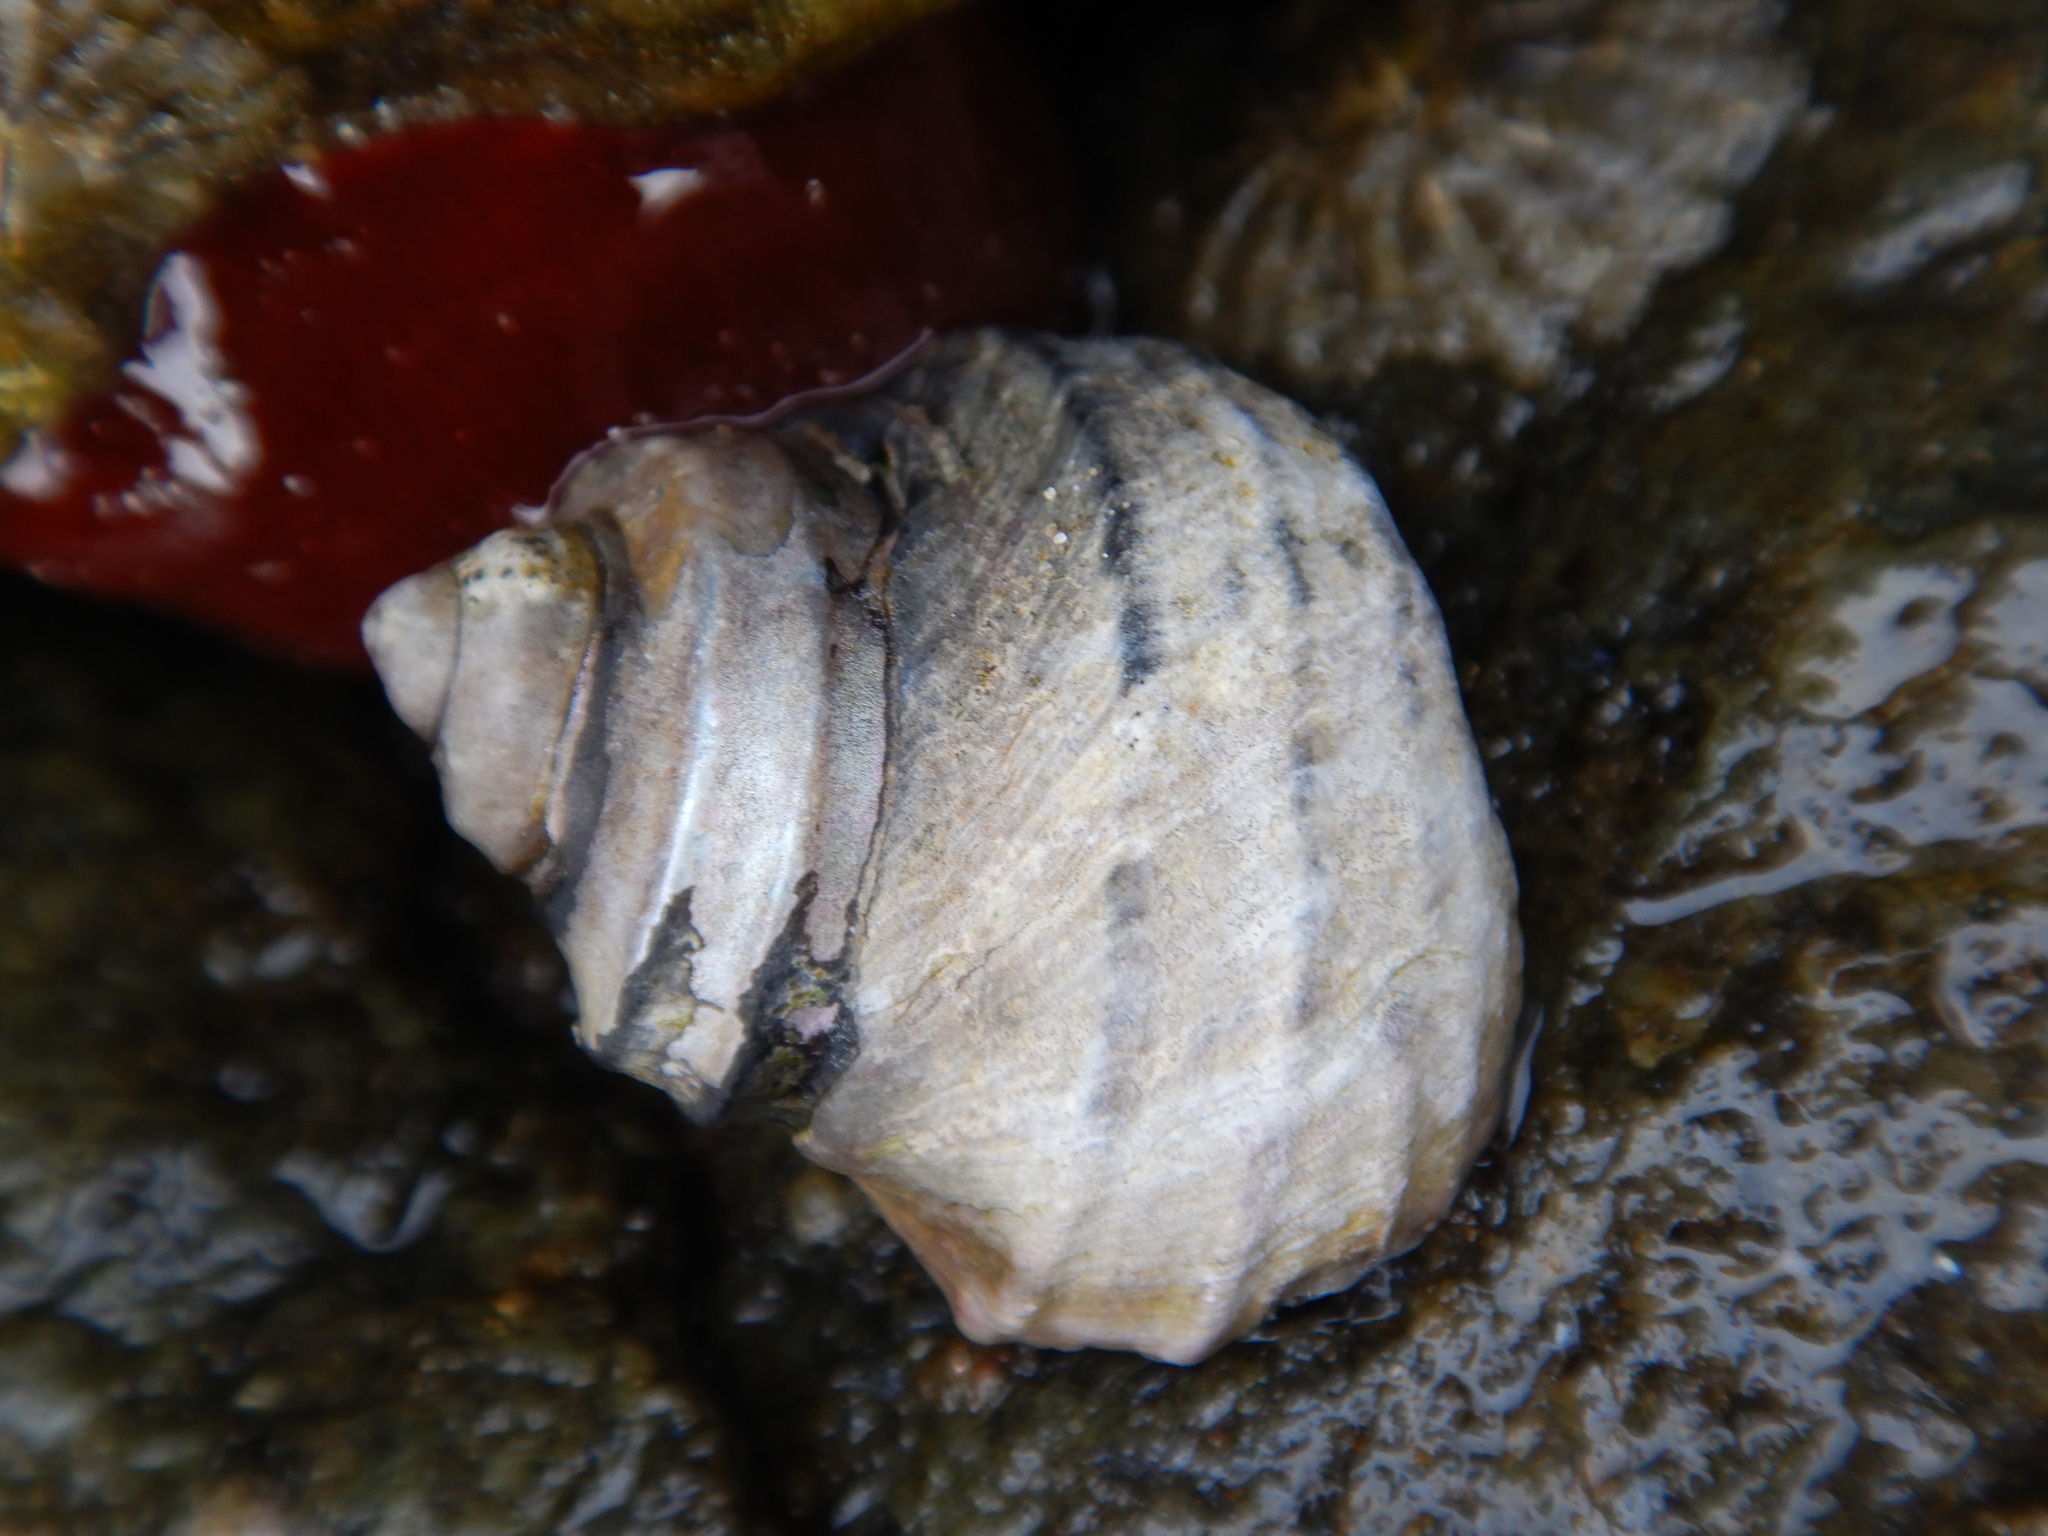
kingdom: Animalia
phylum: Mollusca
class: Gastropoda
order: Trochida
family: Trochidae
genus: Austrocochlea
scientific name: Austrocochlea constricta
